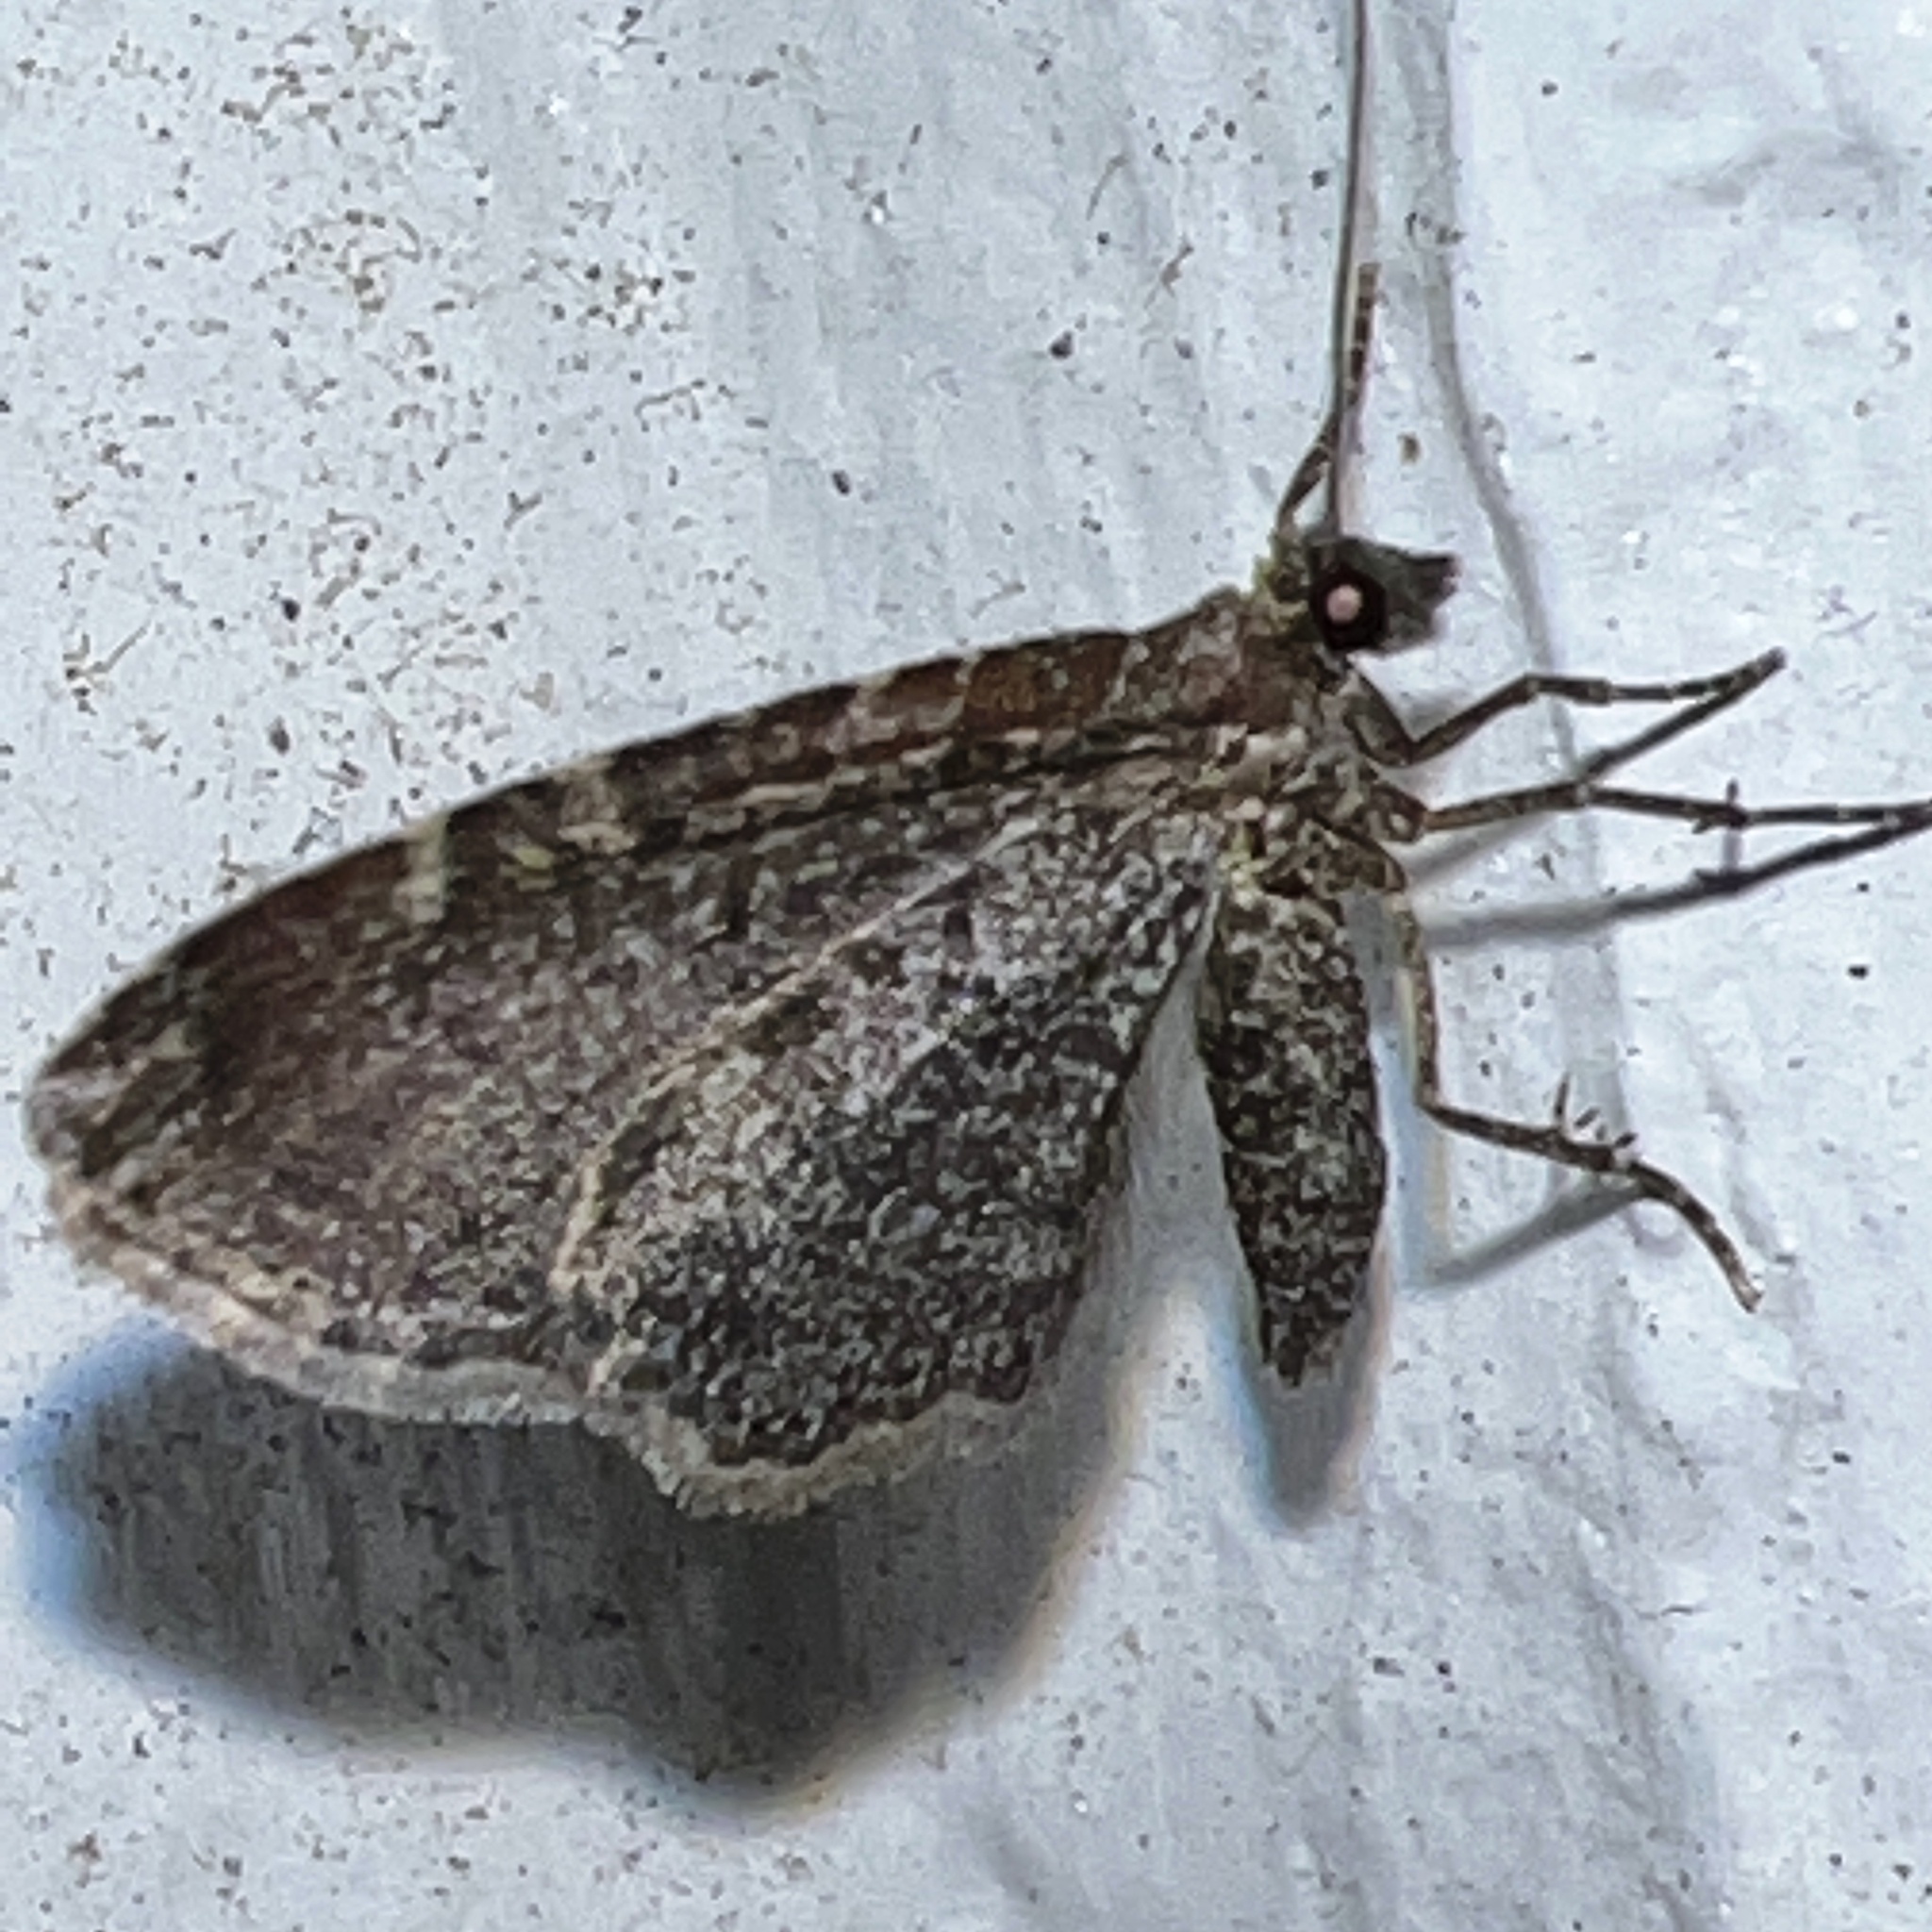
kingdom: Animalia
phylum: Arthropoda
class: Insecta
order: Lepidoptera
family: Geometridae
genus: Orthonama
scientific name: Orthonama obstipata
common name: The gem
